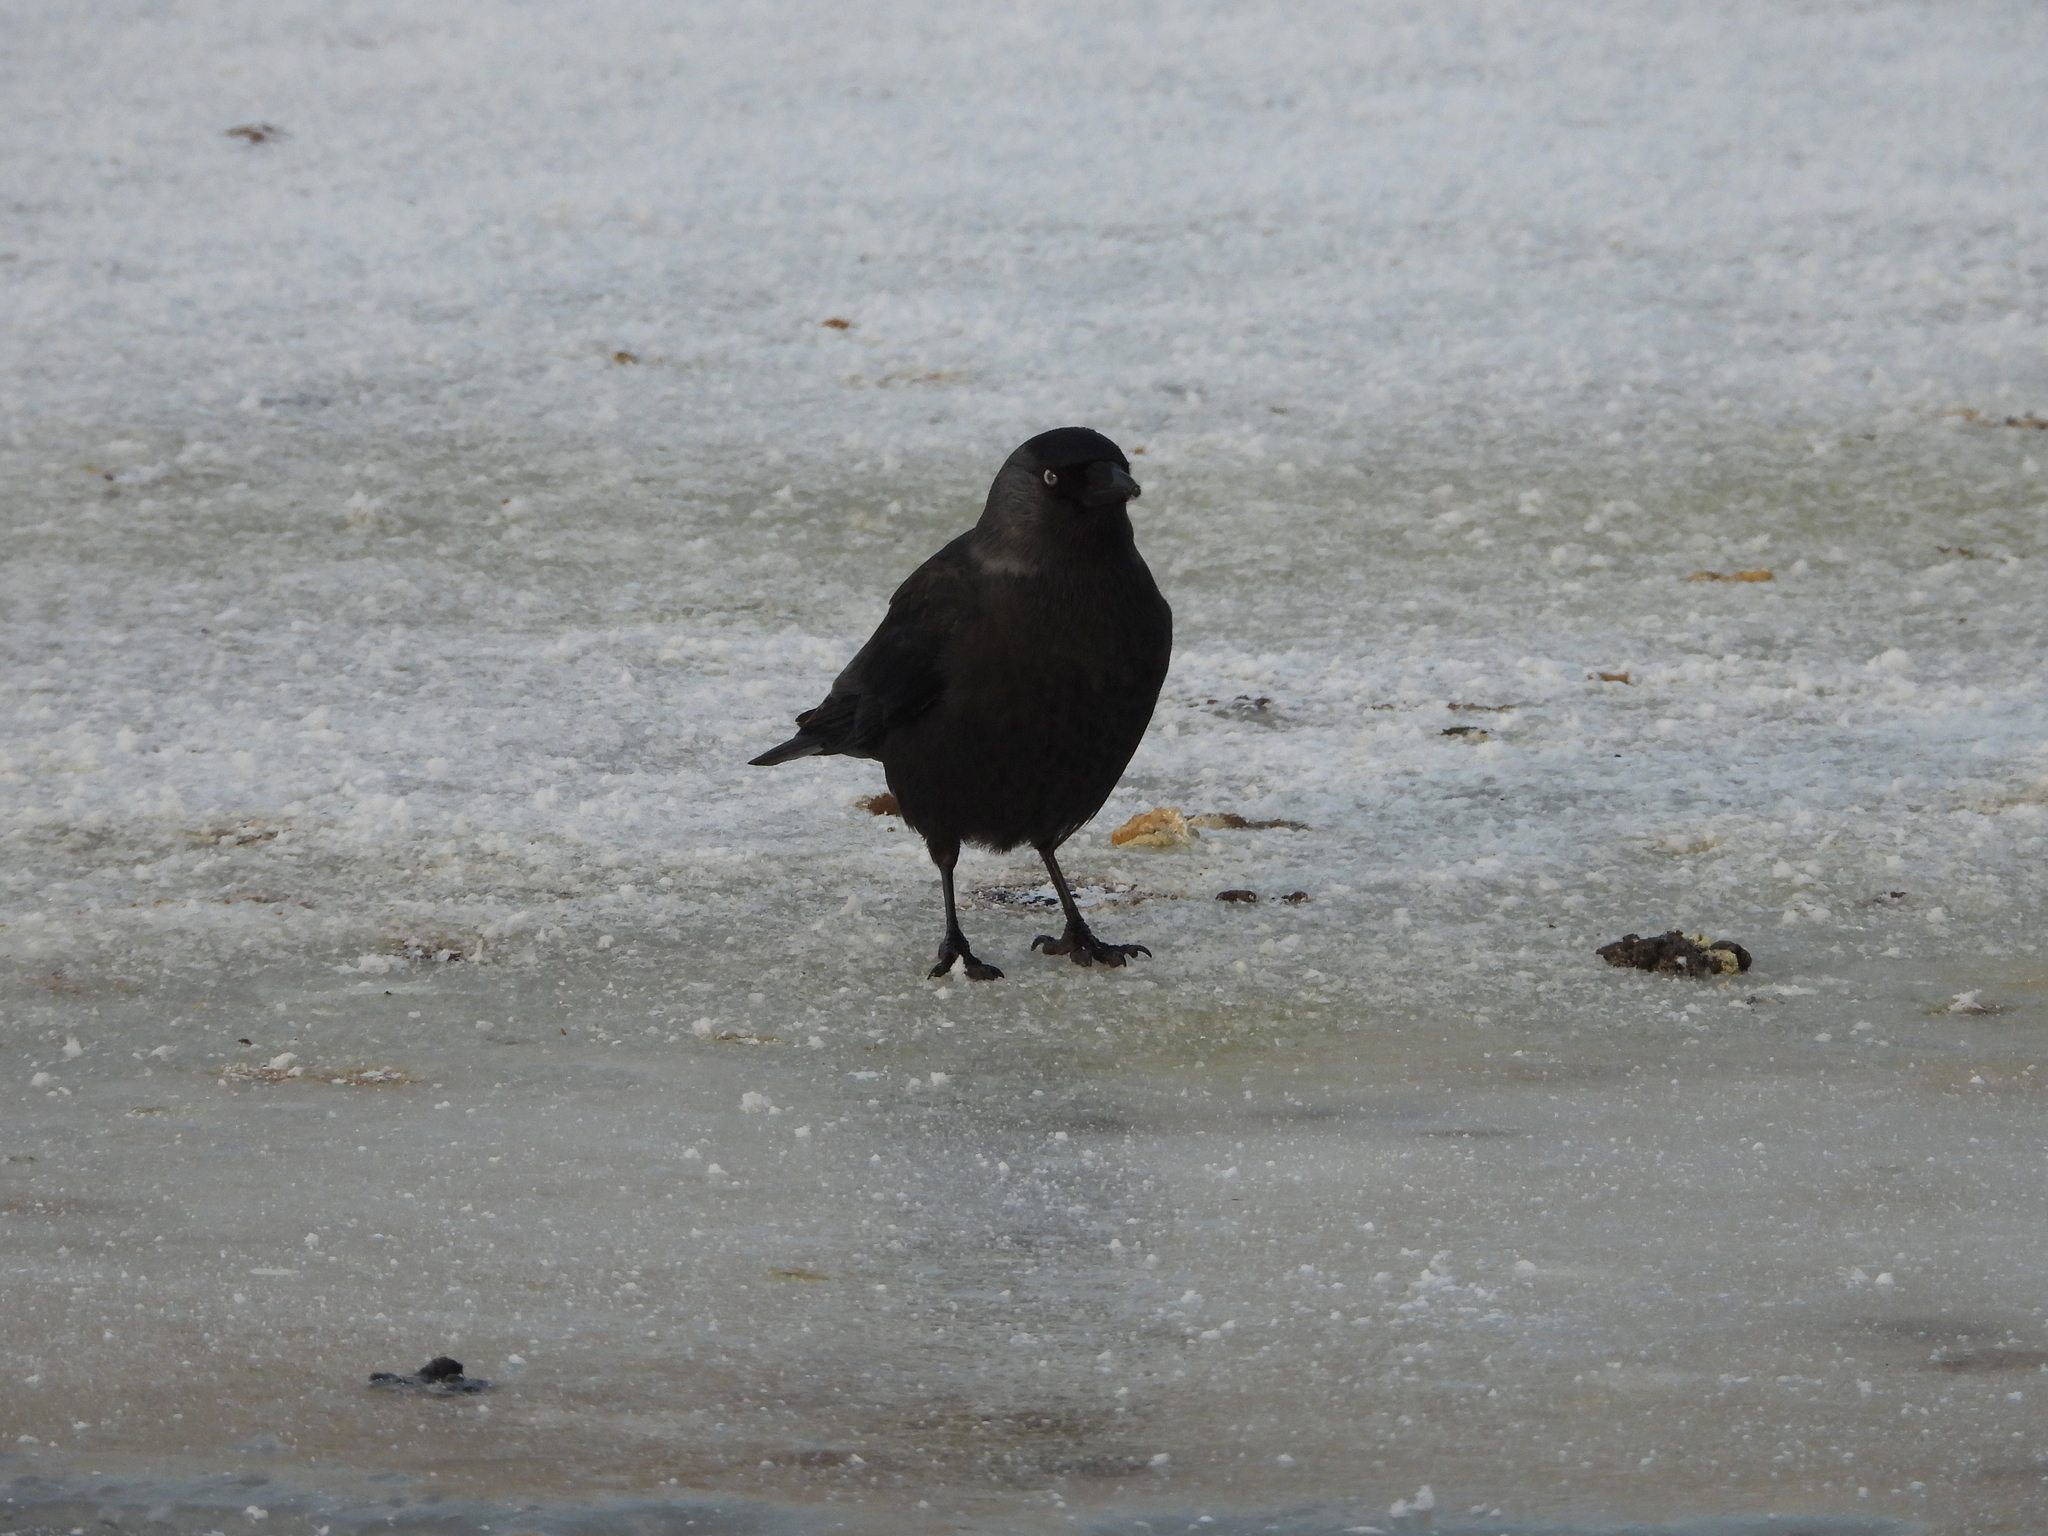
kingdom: Animalia
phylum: Chordata
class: Aves
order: Passeriformes
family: Corvidae
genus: Coloeus
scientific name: Coloeus monedula
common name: Western jackdaw
